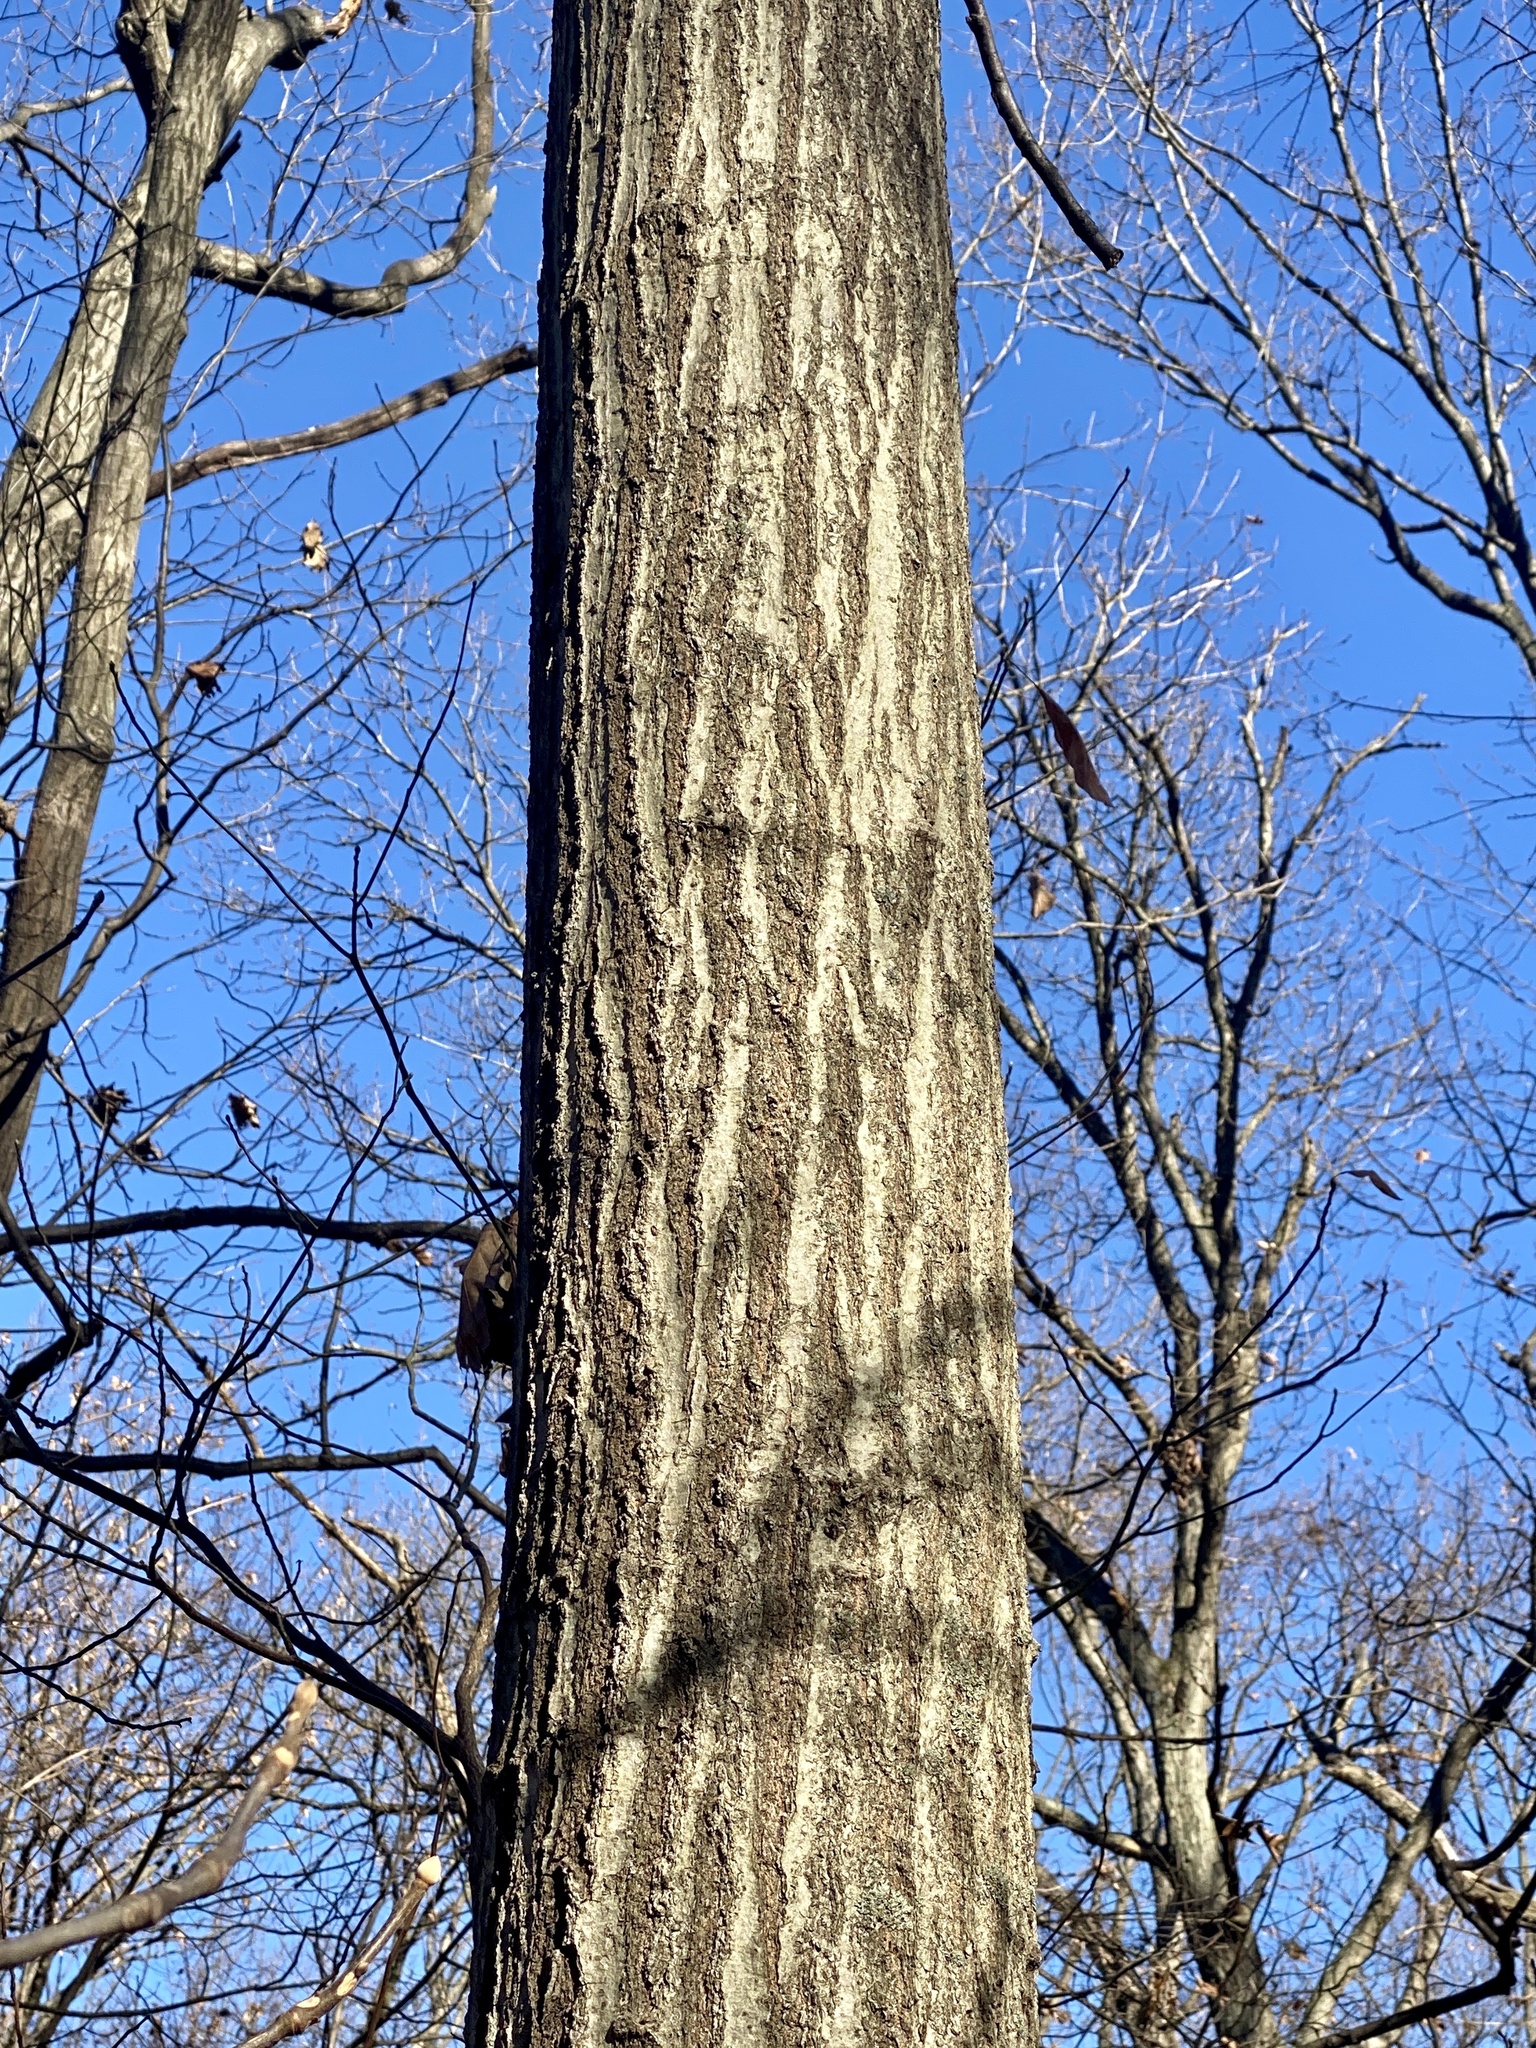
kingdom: Plantae
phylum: Tracheophyta
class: Magnoliopsida
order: Fagales
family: Fagaceae
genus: Quercus
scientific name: Quercus rubra
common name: Red oak
